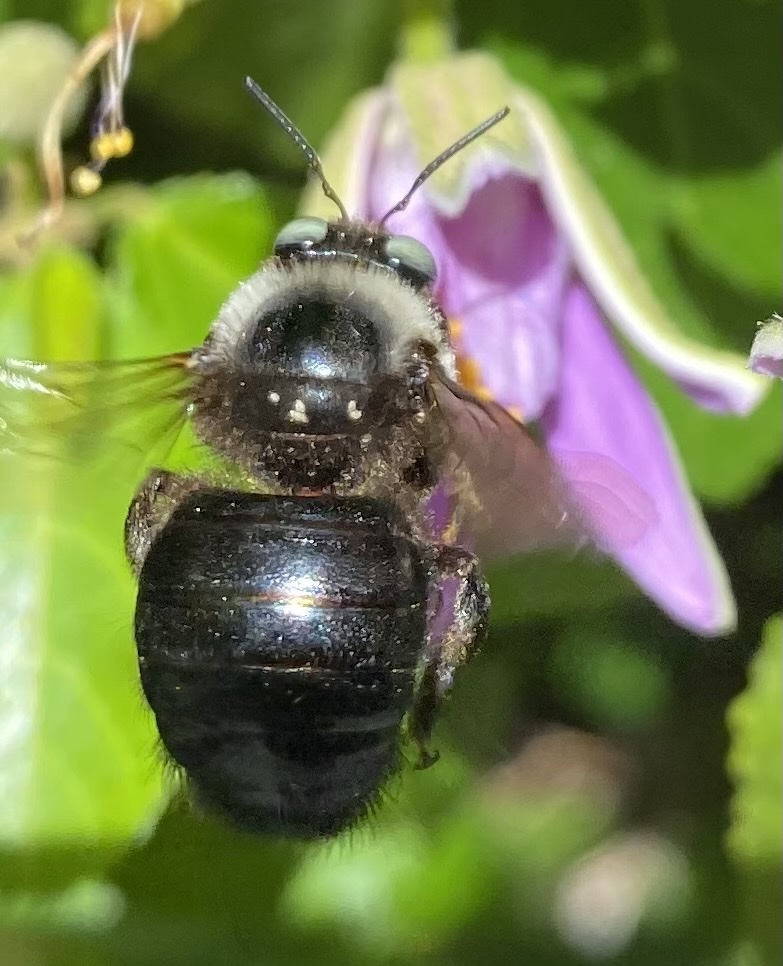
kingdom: Animalia
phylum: Arthropoda
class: Insecta
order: Hymenoptera
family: Apidae
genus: Xylocopa
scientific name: Xylocopa tabaniformis
